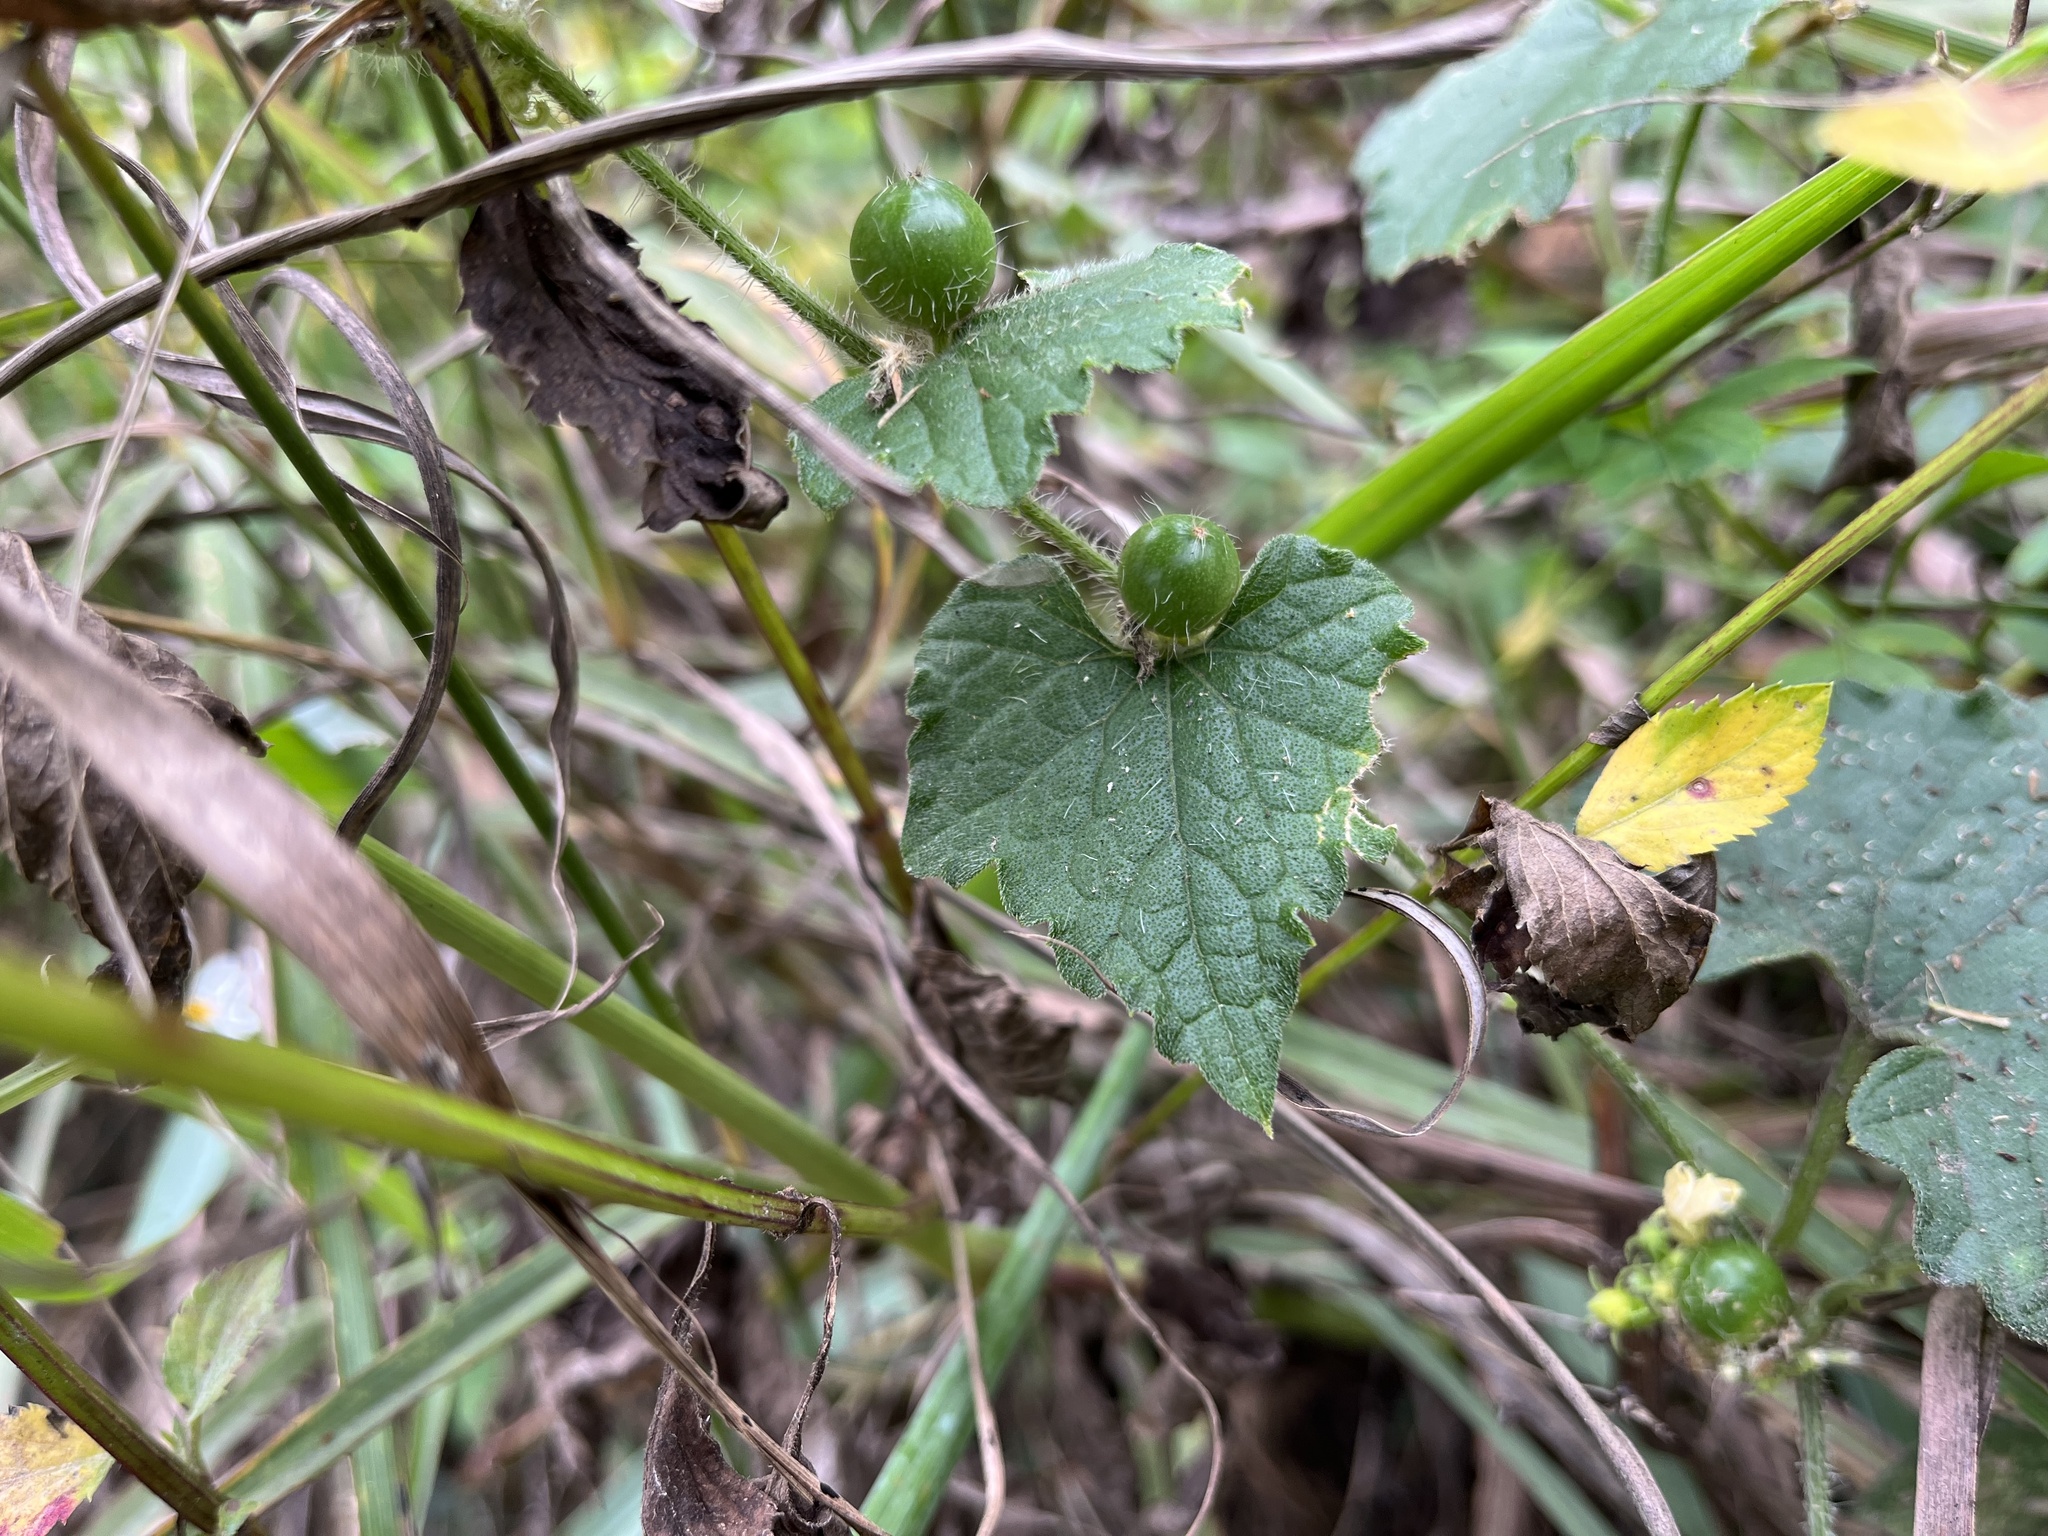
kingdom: Plantae
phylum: Tracheophyta
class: Magnoliopsida
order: Cucurbitales
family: Cucurbitaceae
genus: Cucumis
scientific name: Cucumis maderaspatanus
